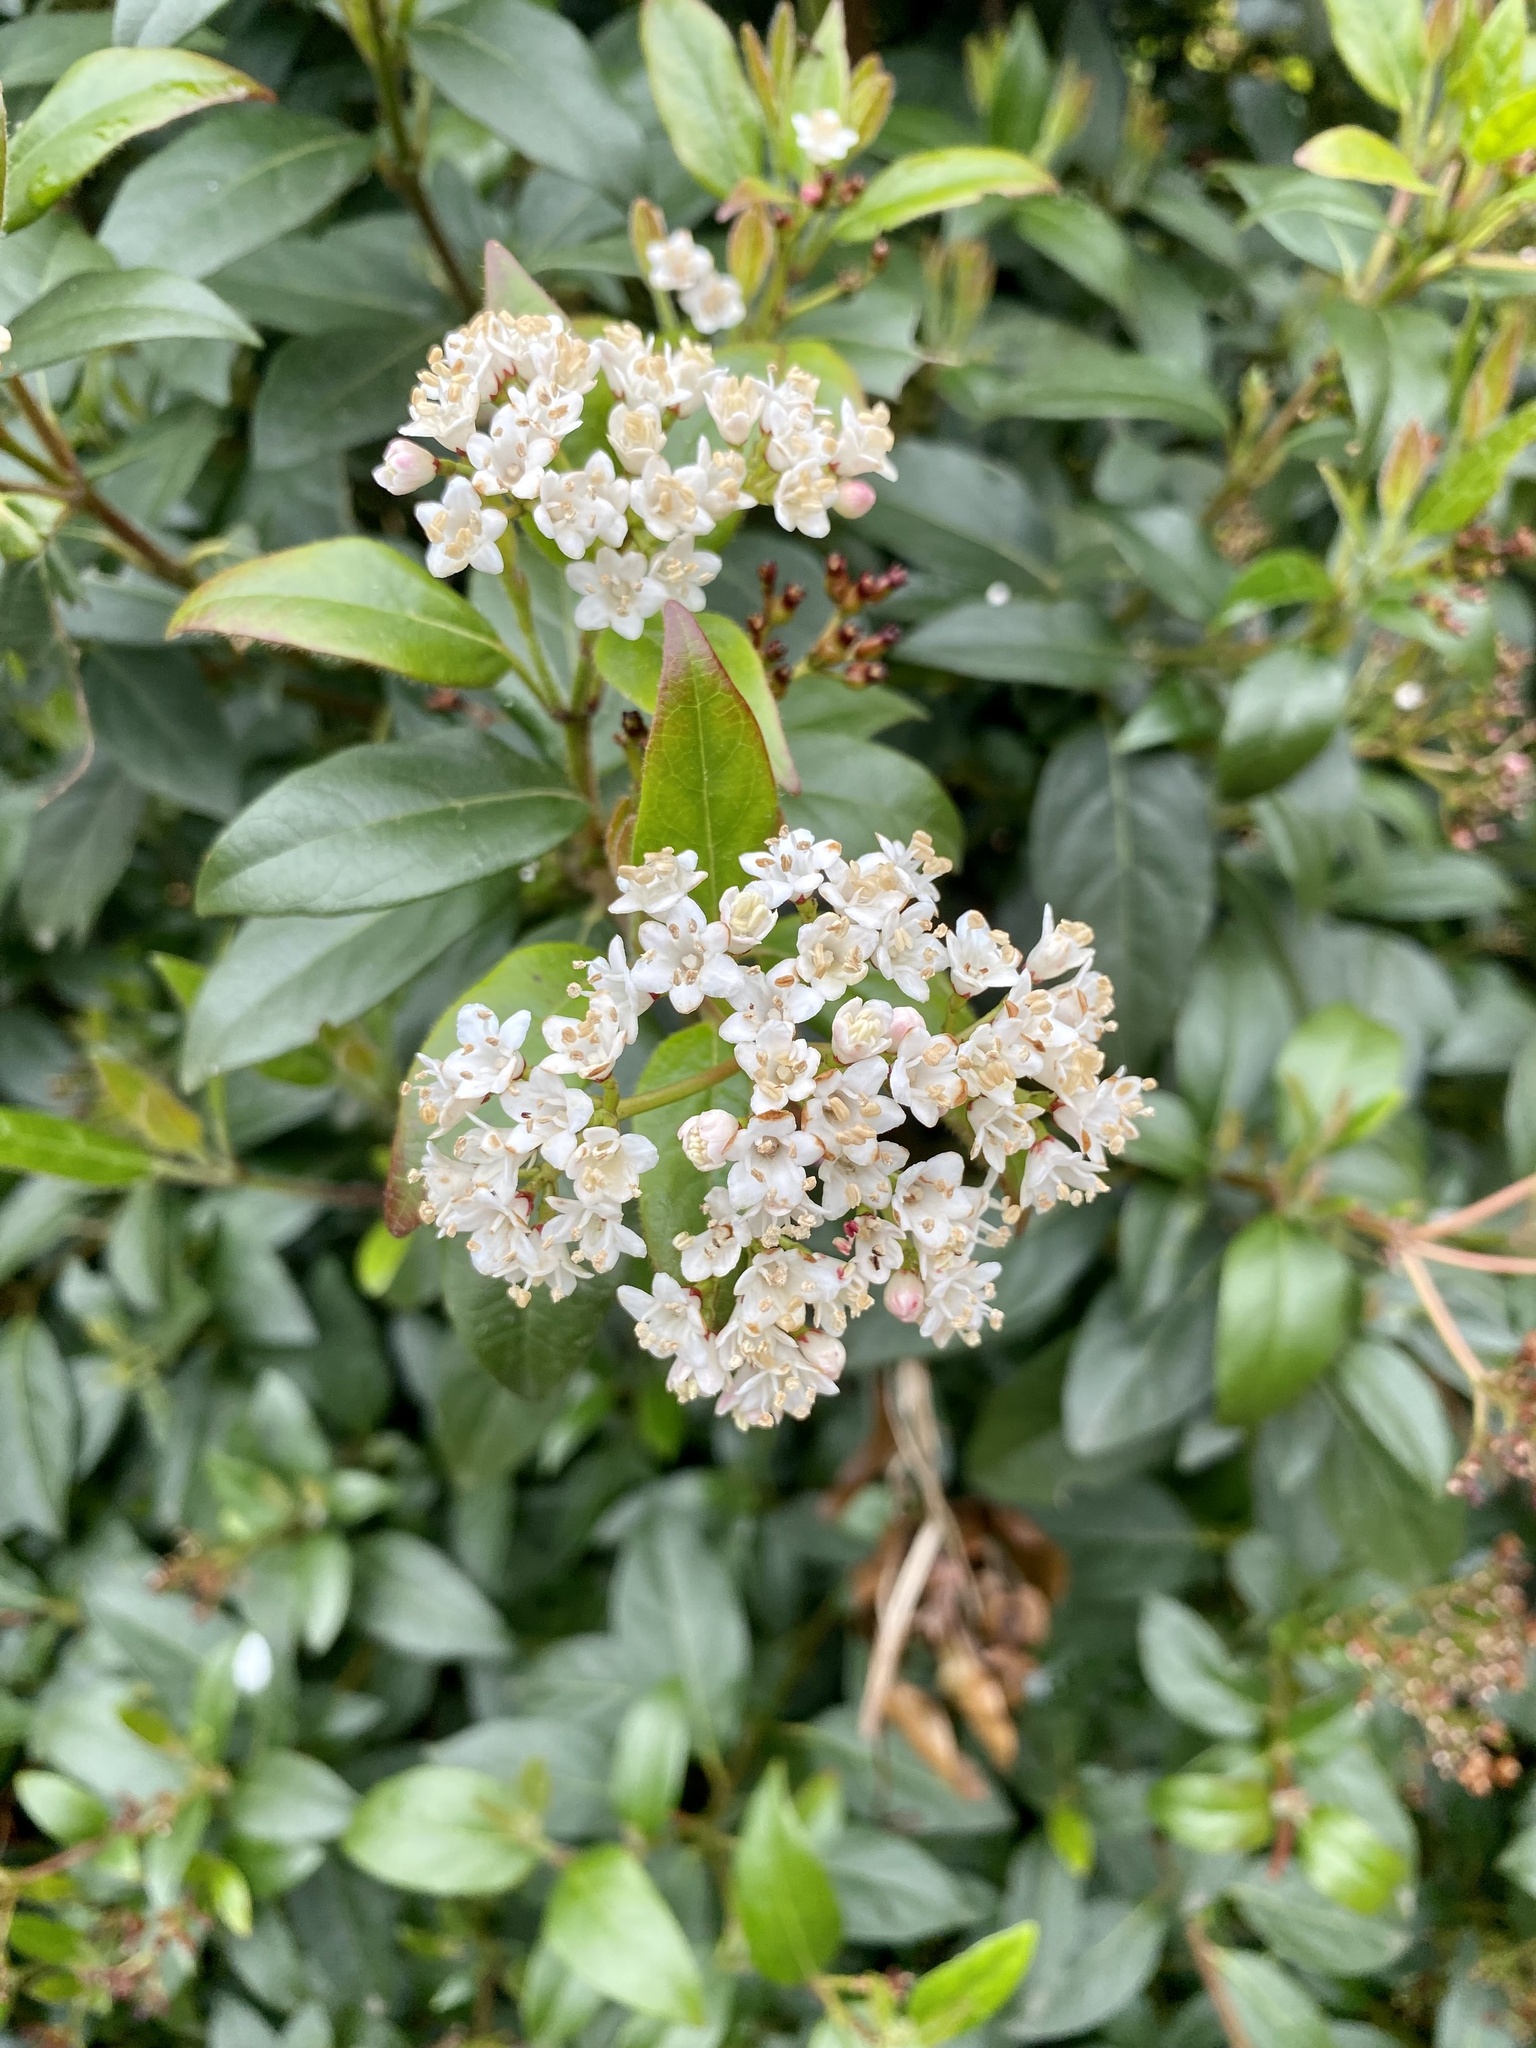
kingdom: Plantae
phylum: Tracheophyta
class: Magnoliopsida
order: Dipsacales
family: Viburnaceae
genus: Viburnum
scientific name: Viburnum tinus
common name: Laurustinus
